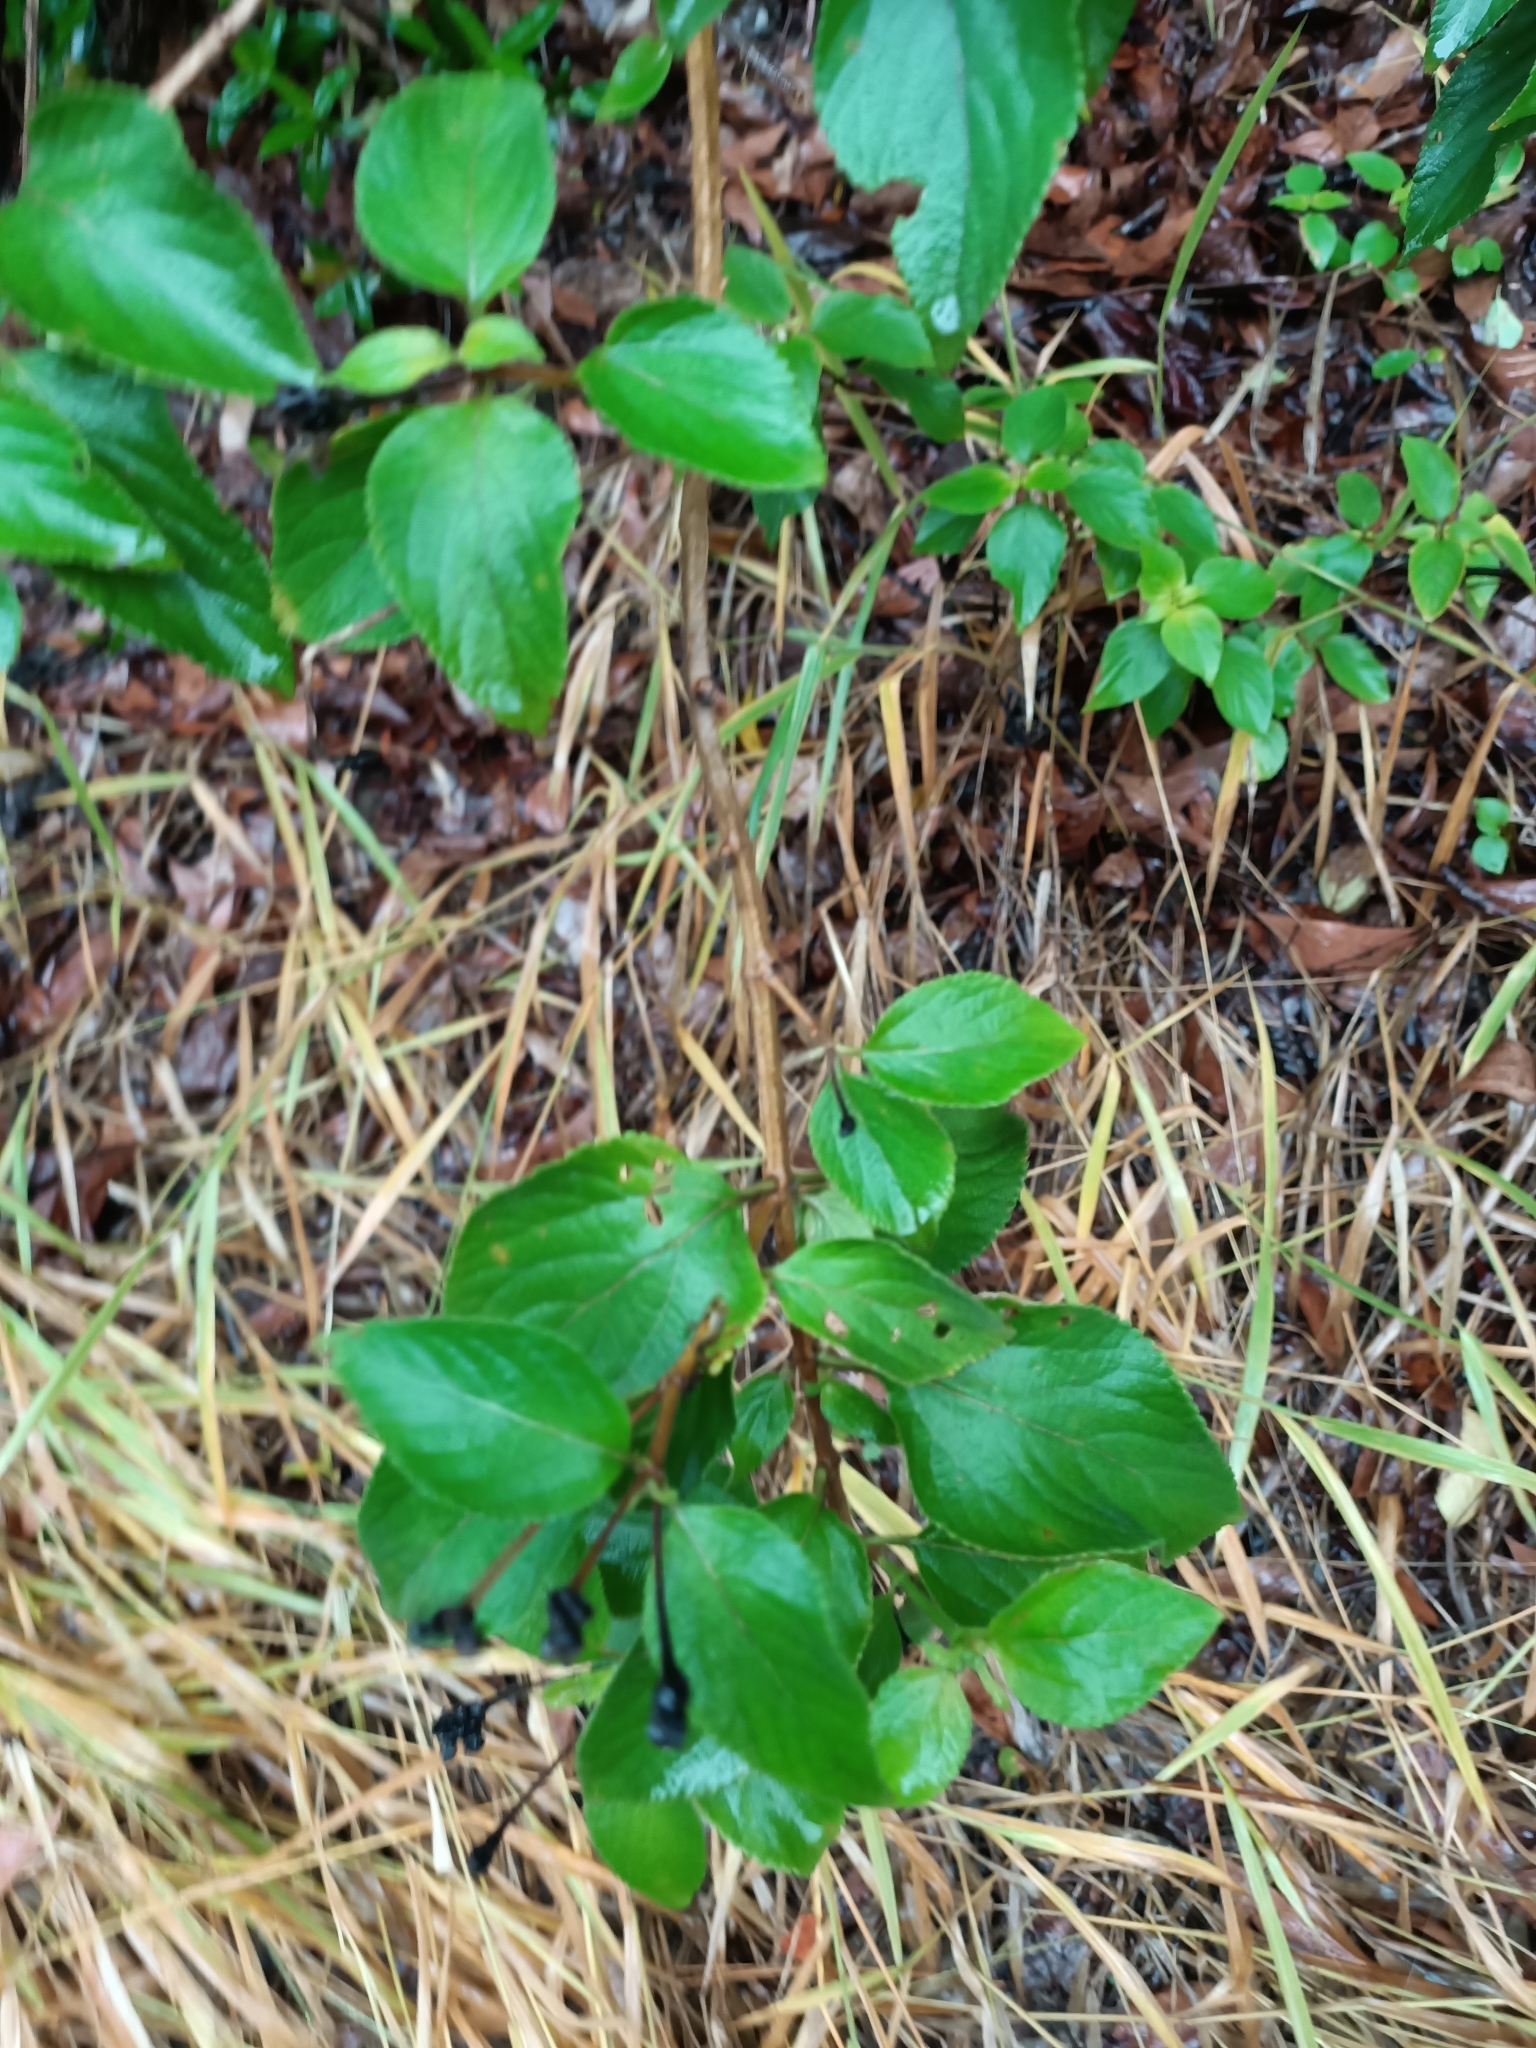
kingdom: Plantae
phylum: Tracheophyta
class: Magnoliopsida
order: Lamiales
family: Verbenaceae
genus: Lantana
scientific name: Lantana camara
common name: Lantana
